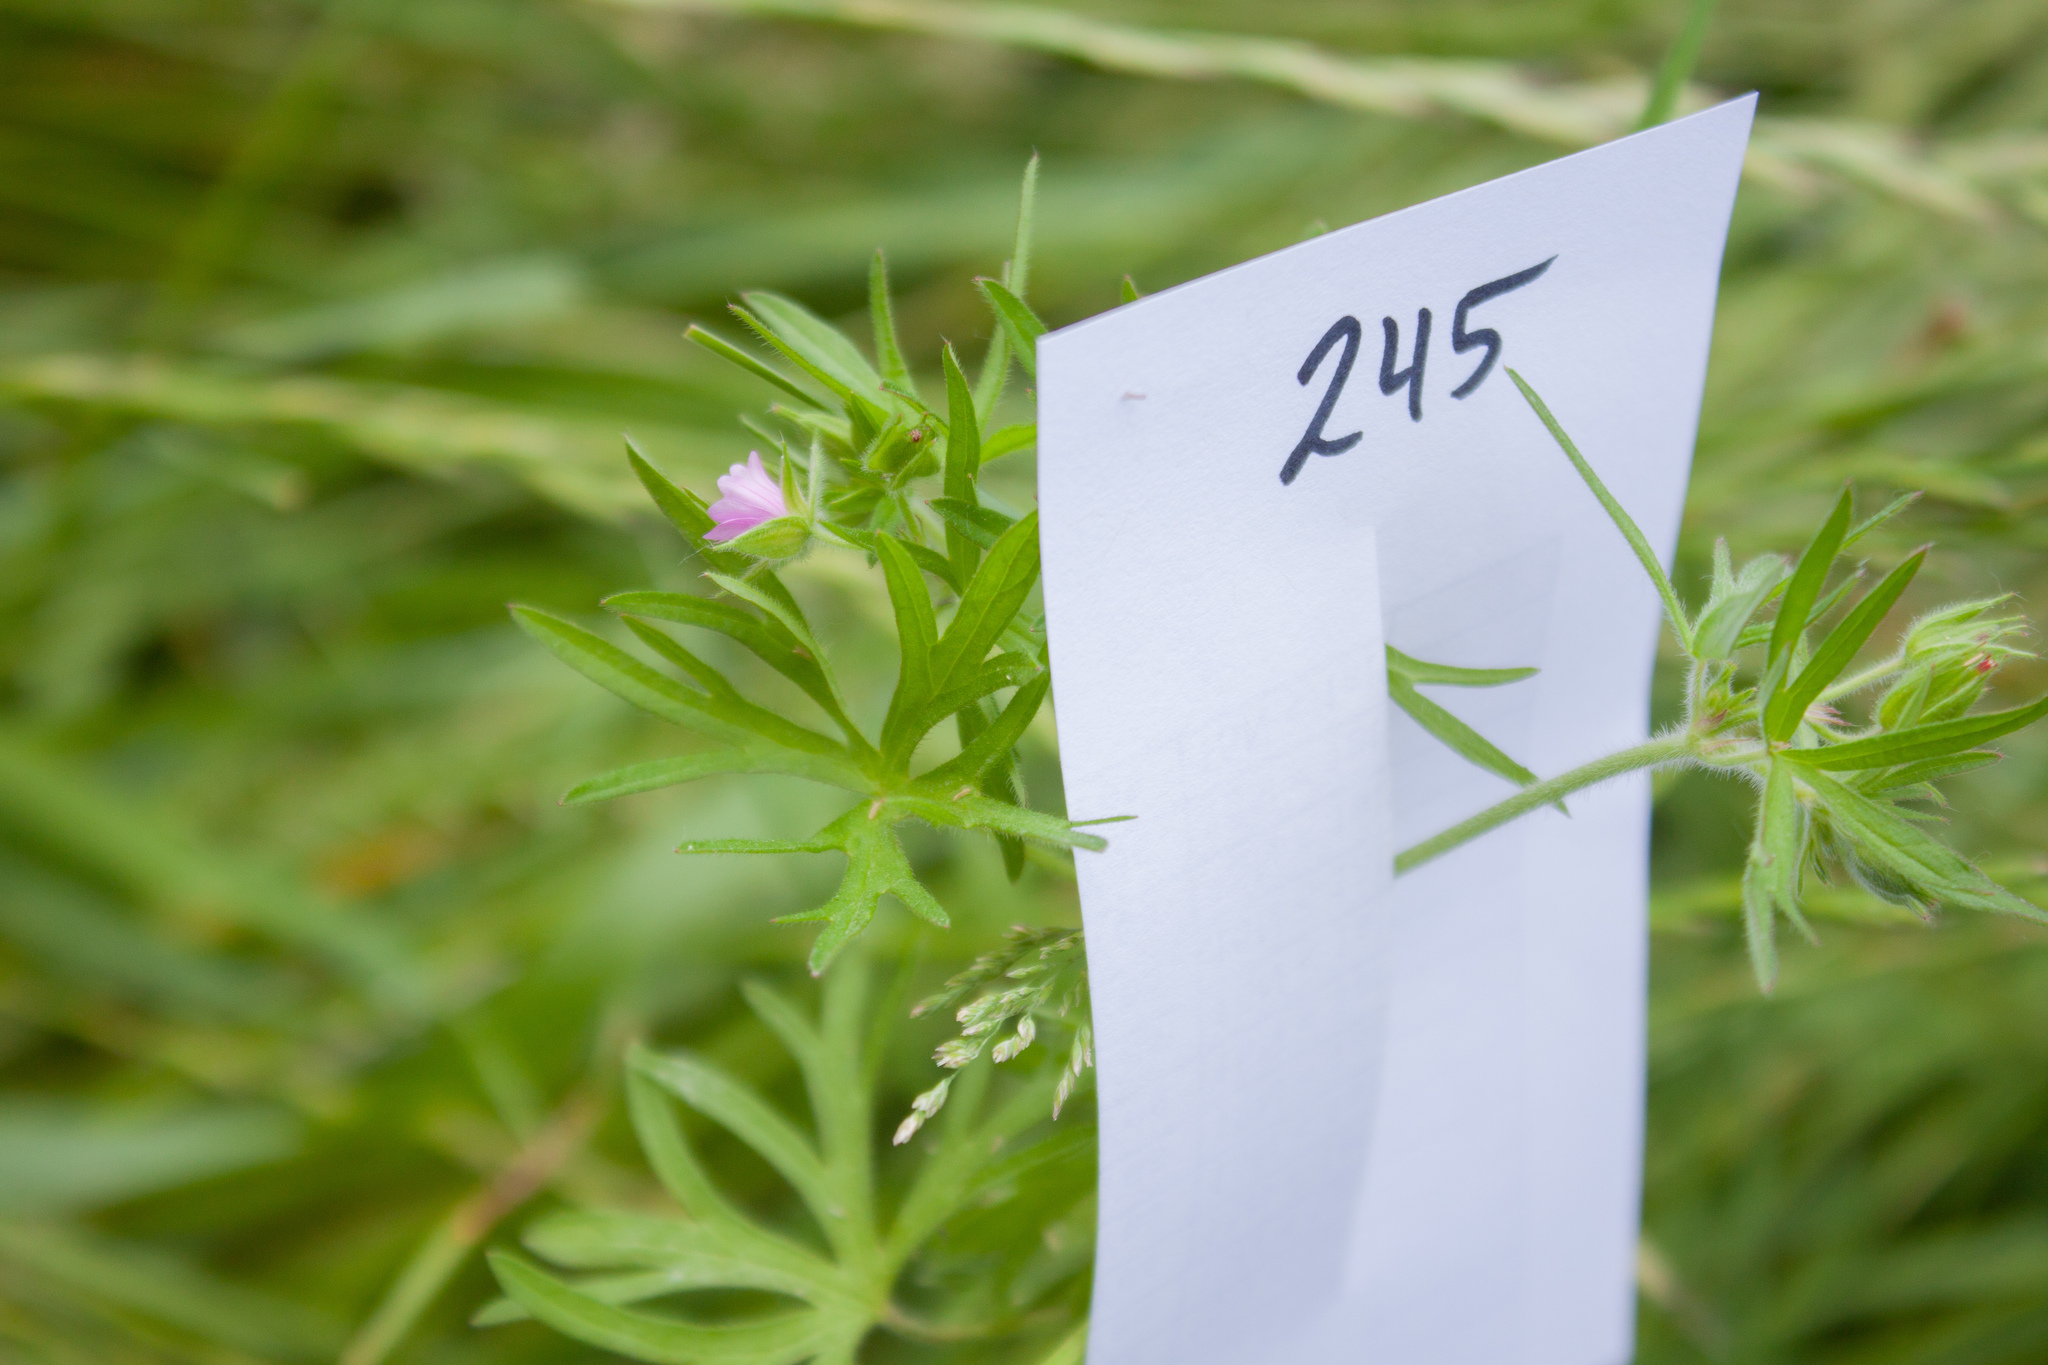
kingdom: Plantae
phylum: Tracheophyta
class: Magnoliopsida
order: Geraniales
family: Geraniaceae
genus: Geranium
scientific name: Geranium dissectum
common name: Cut-leaved crane's-bill
